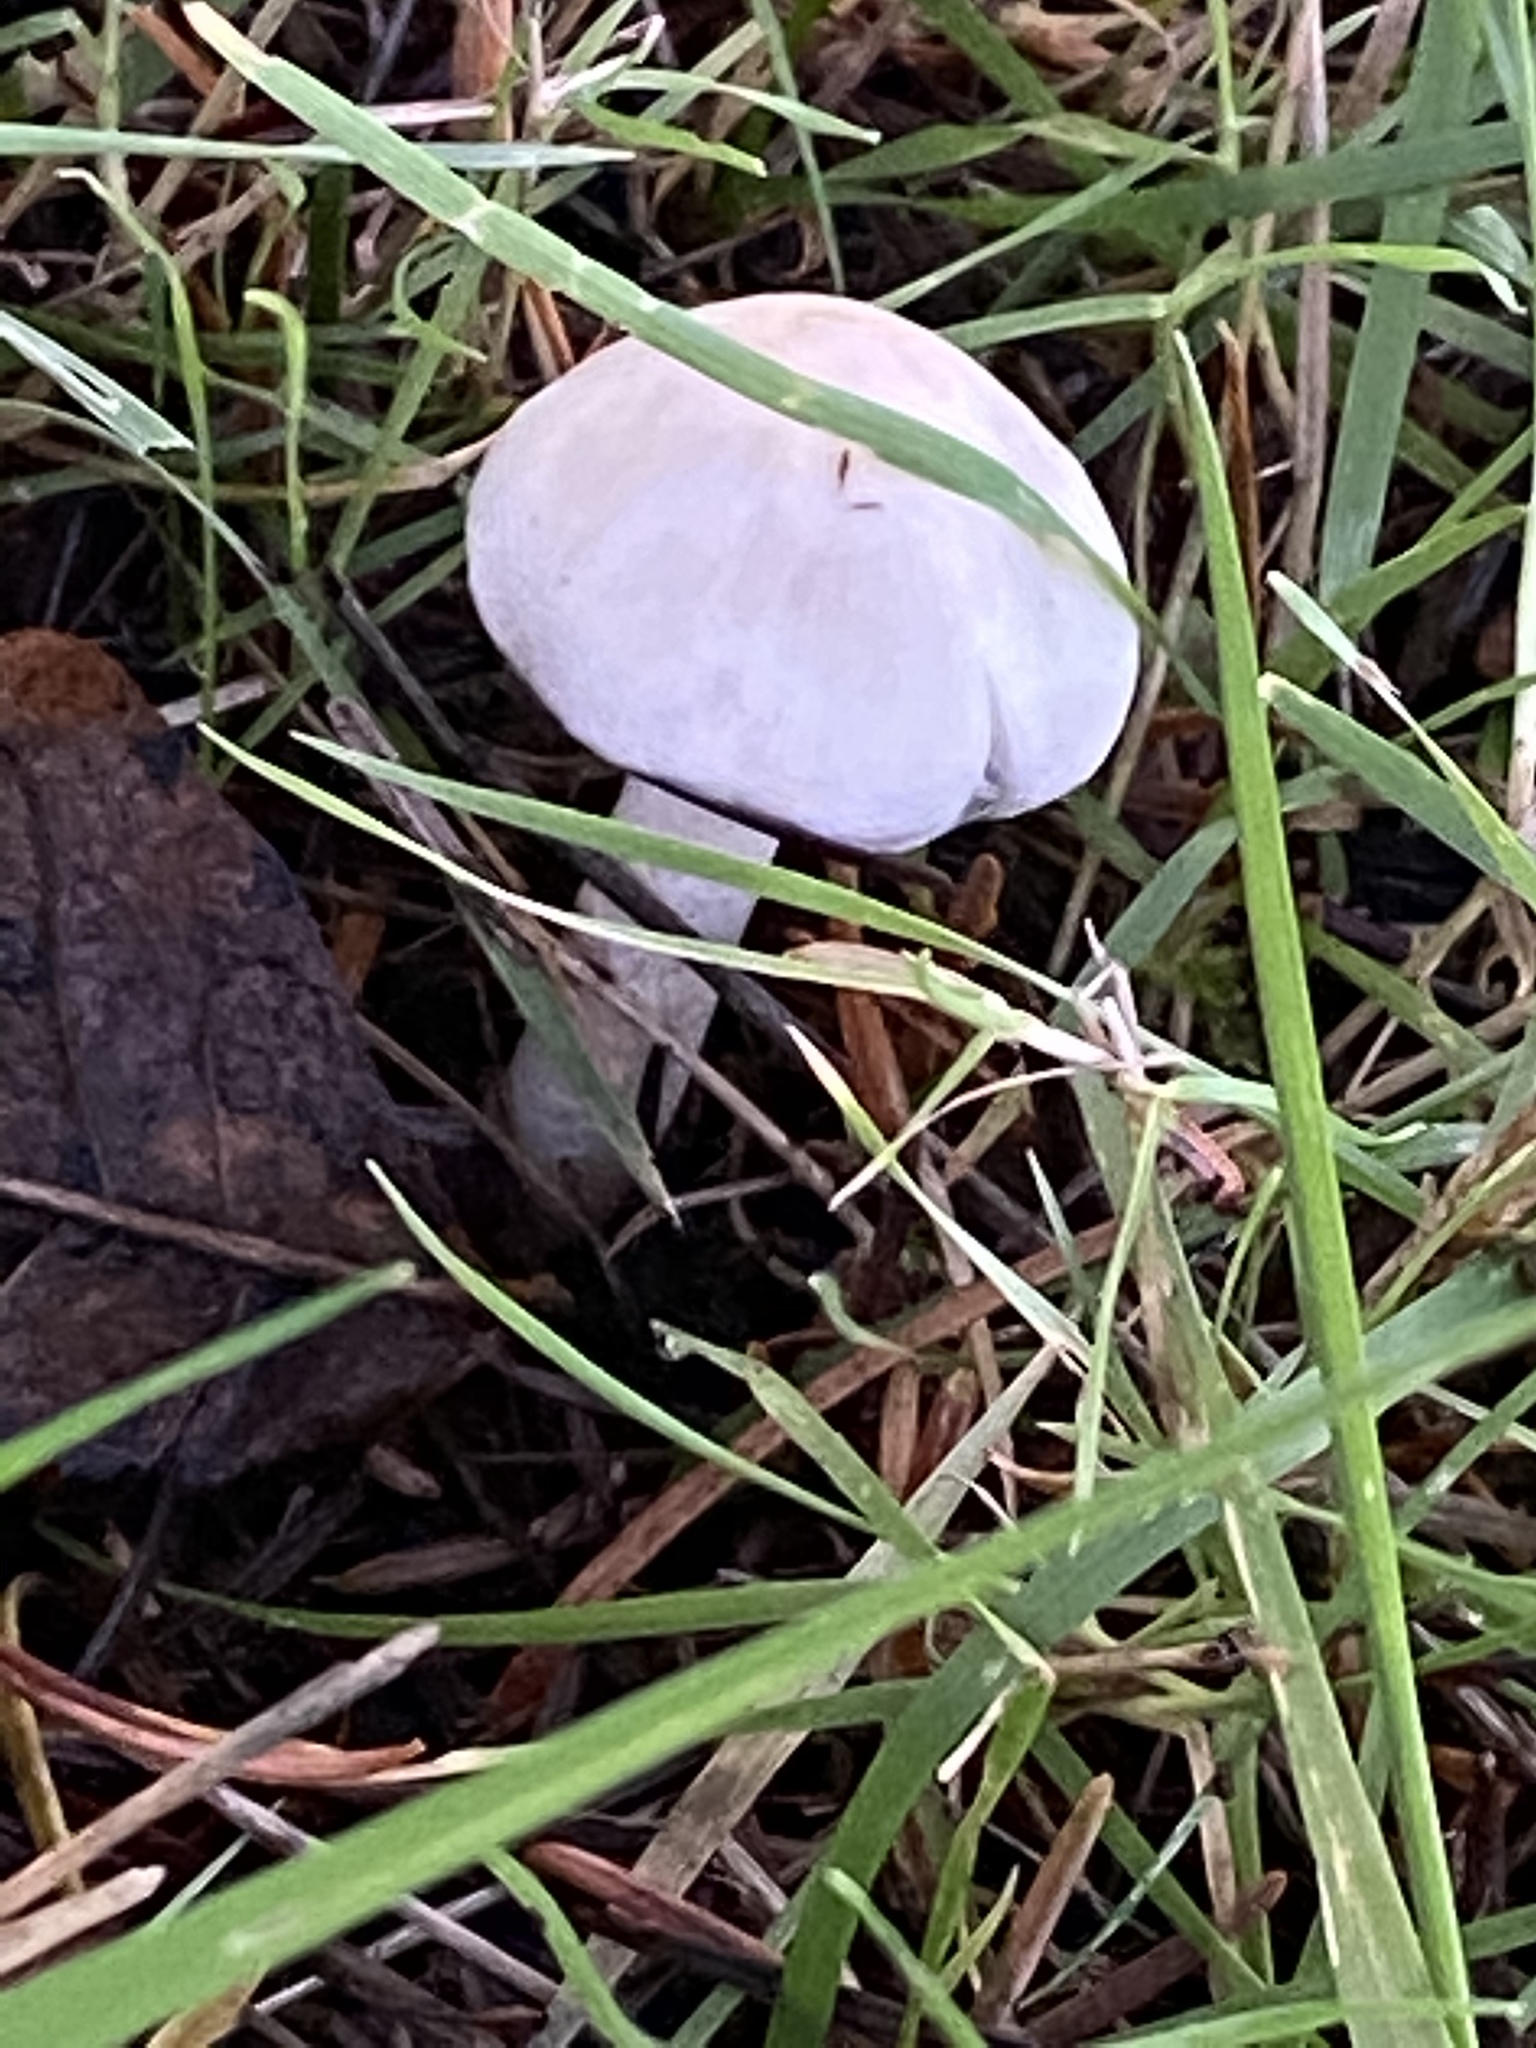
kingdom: Fungi
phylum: Basidiomycota
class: Agaricomycetes
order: Agaricales
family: Inocybaceae
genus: Inocybe
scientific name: Inocybe geophylla
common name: White fibrecap
